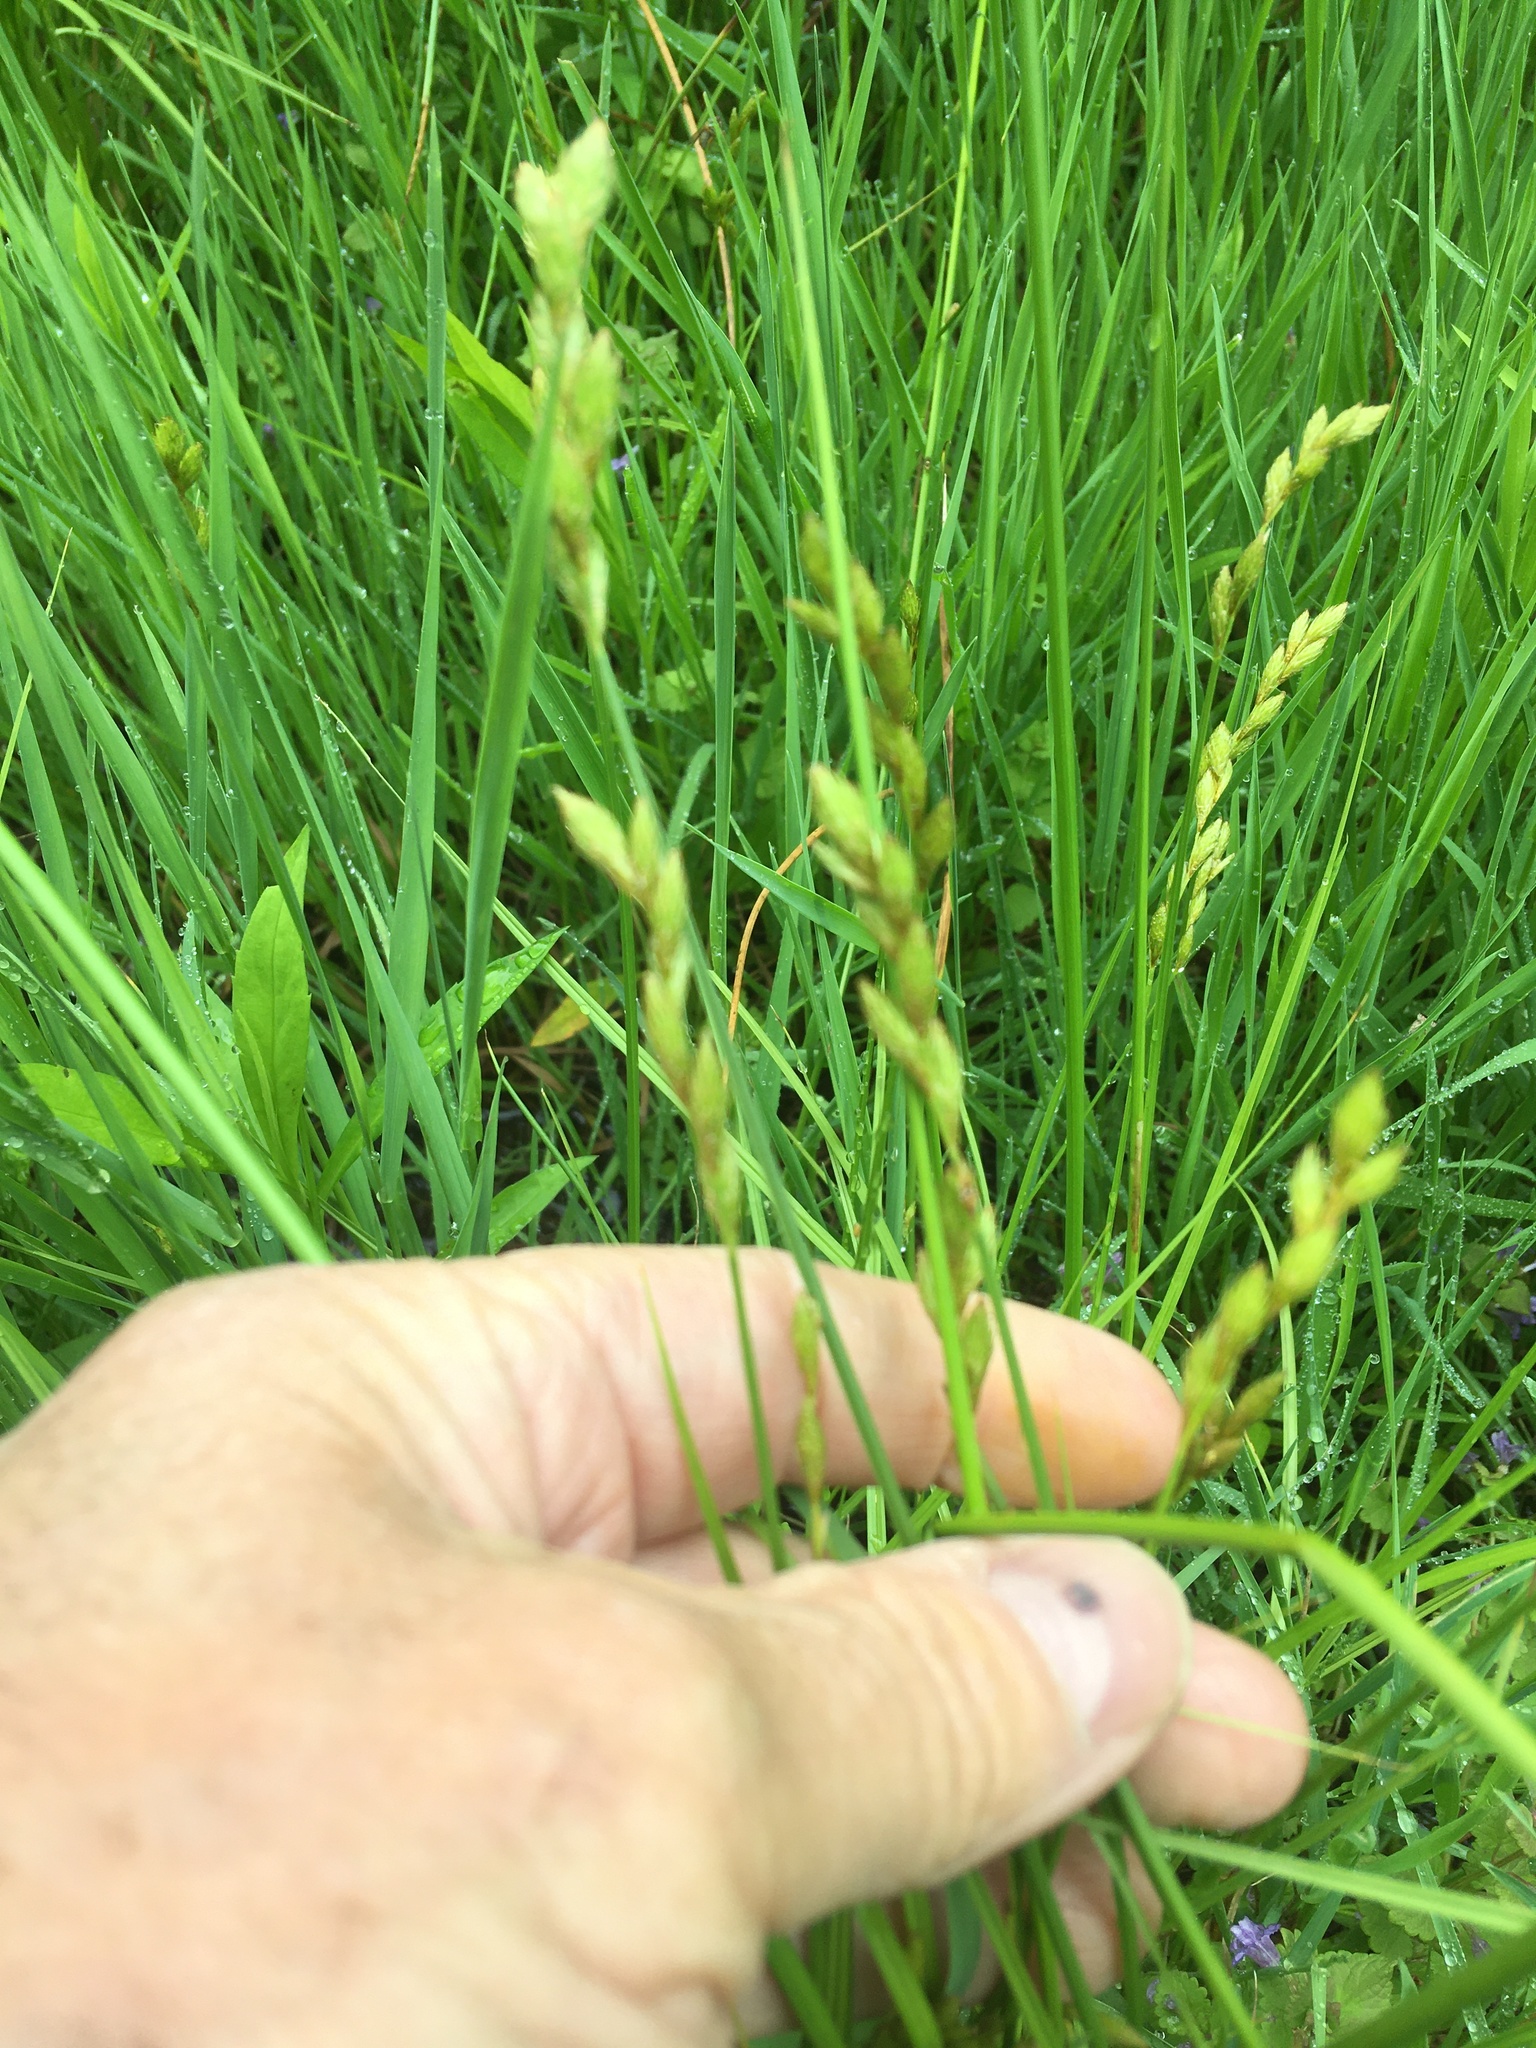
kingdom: Plantae
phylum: Tracheophyta
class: Liliopsida
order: Poales
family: Cyperaceae
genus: Carex
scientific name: Carex scoparia
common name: Broom sedge
